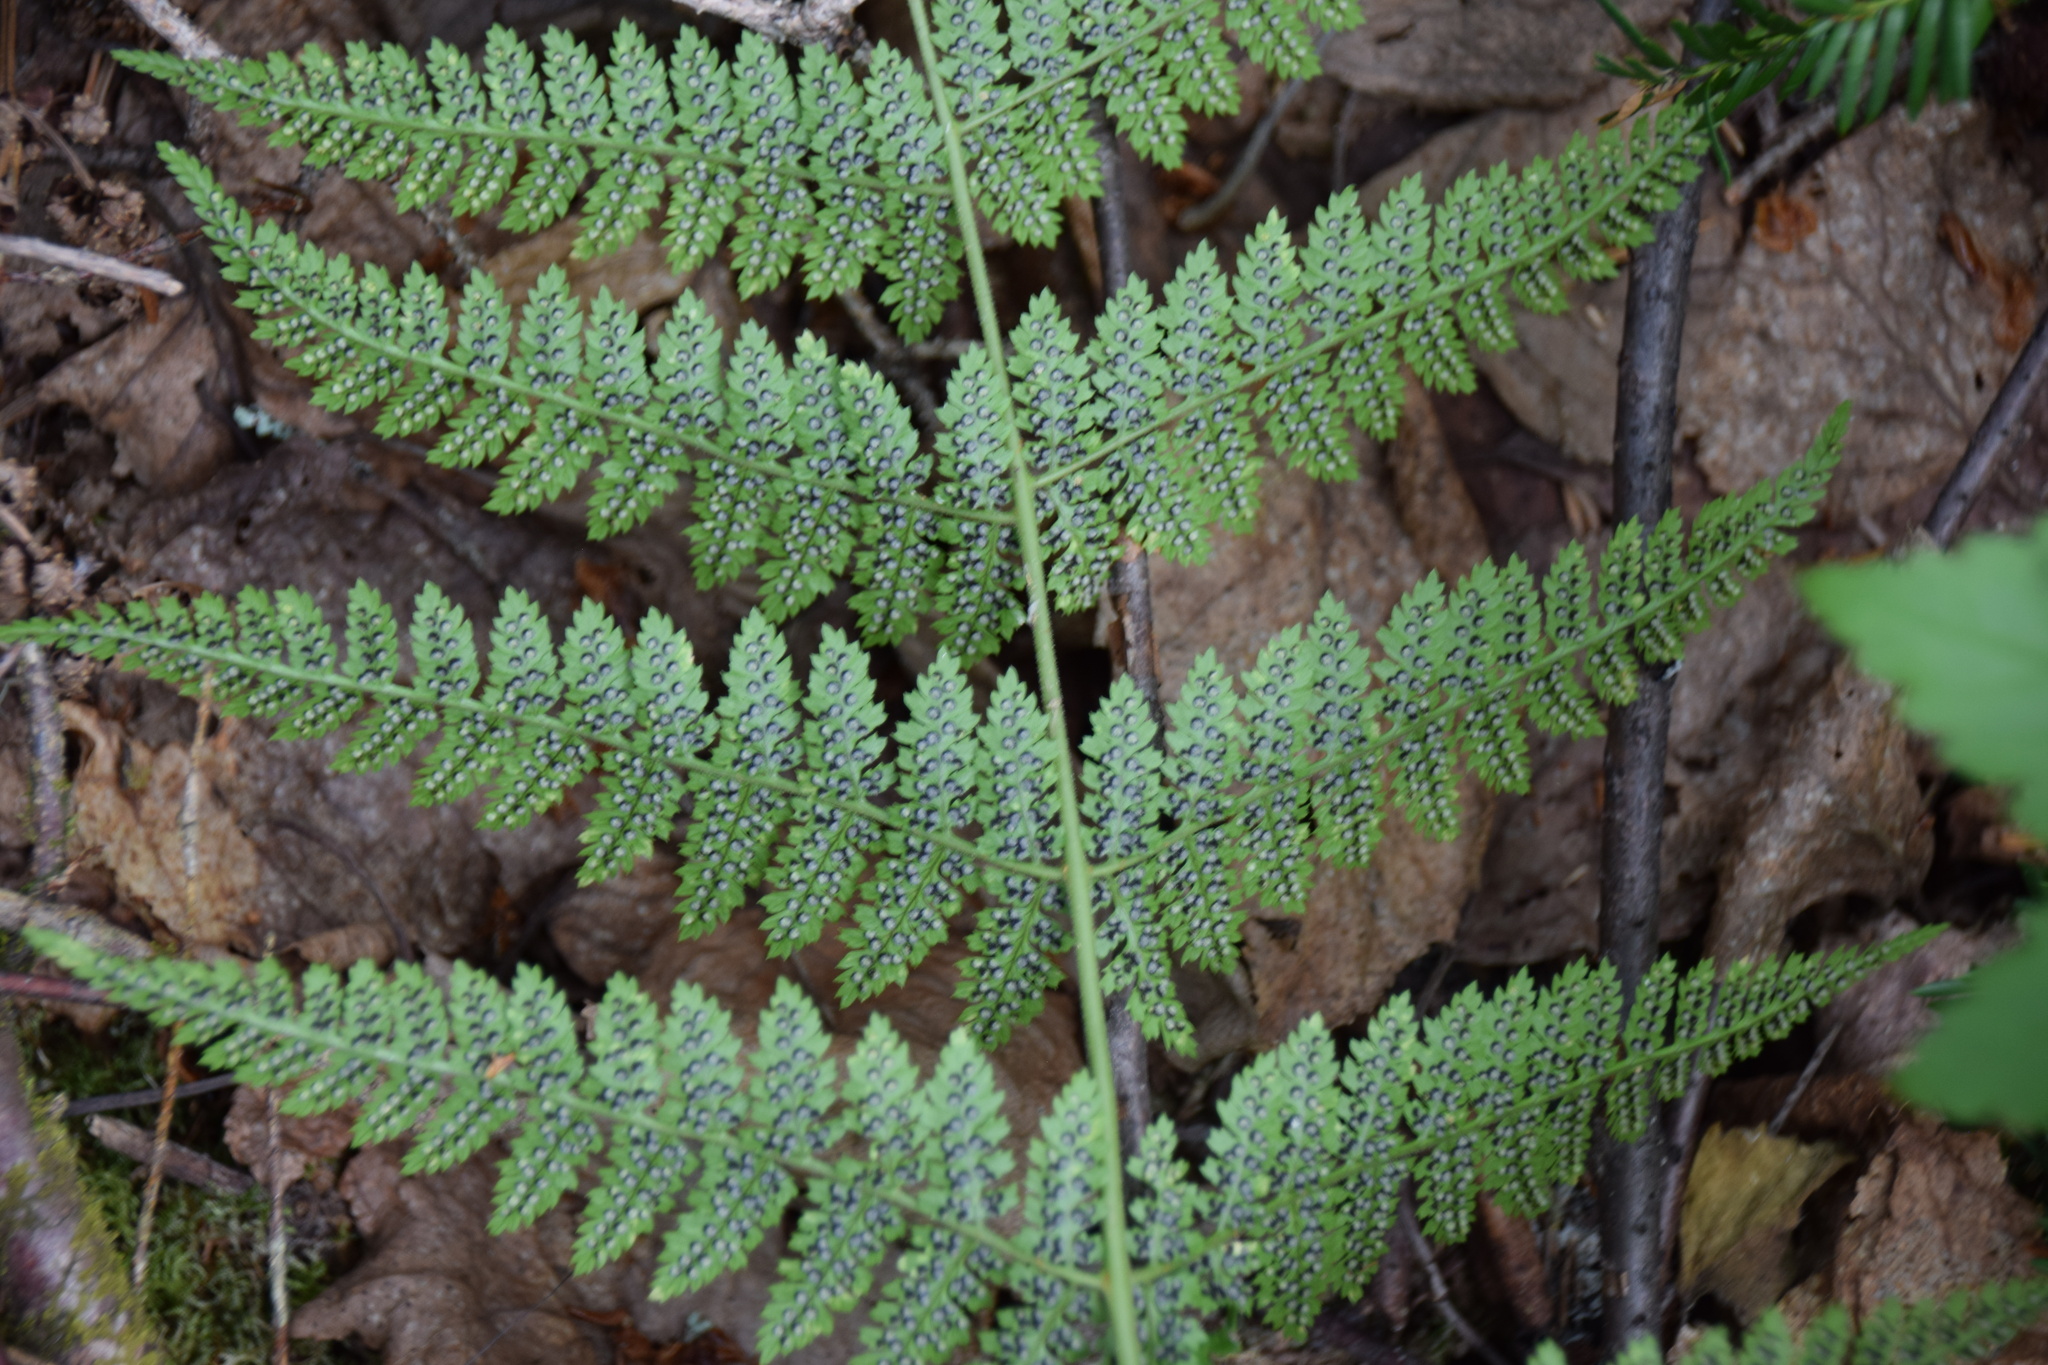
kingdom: Plantae
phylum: Tracheophyta
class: Polypodiopsida
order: Polypodiales
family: Dryopteridaceae
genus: Dryopteris
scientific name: Dryopteris intermedia
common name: Evergreen wood fern
